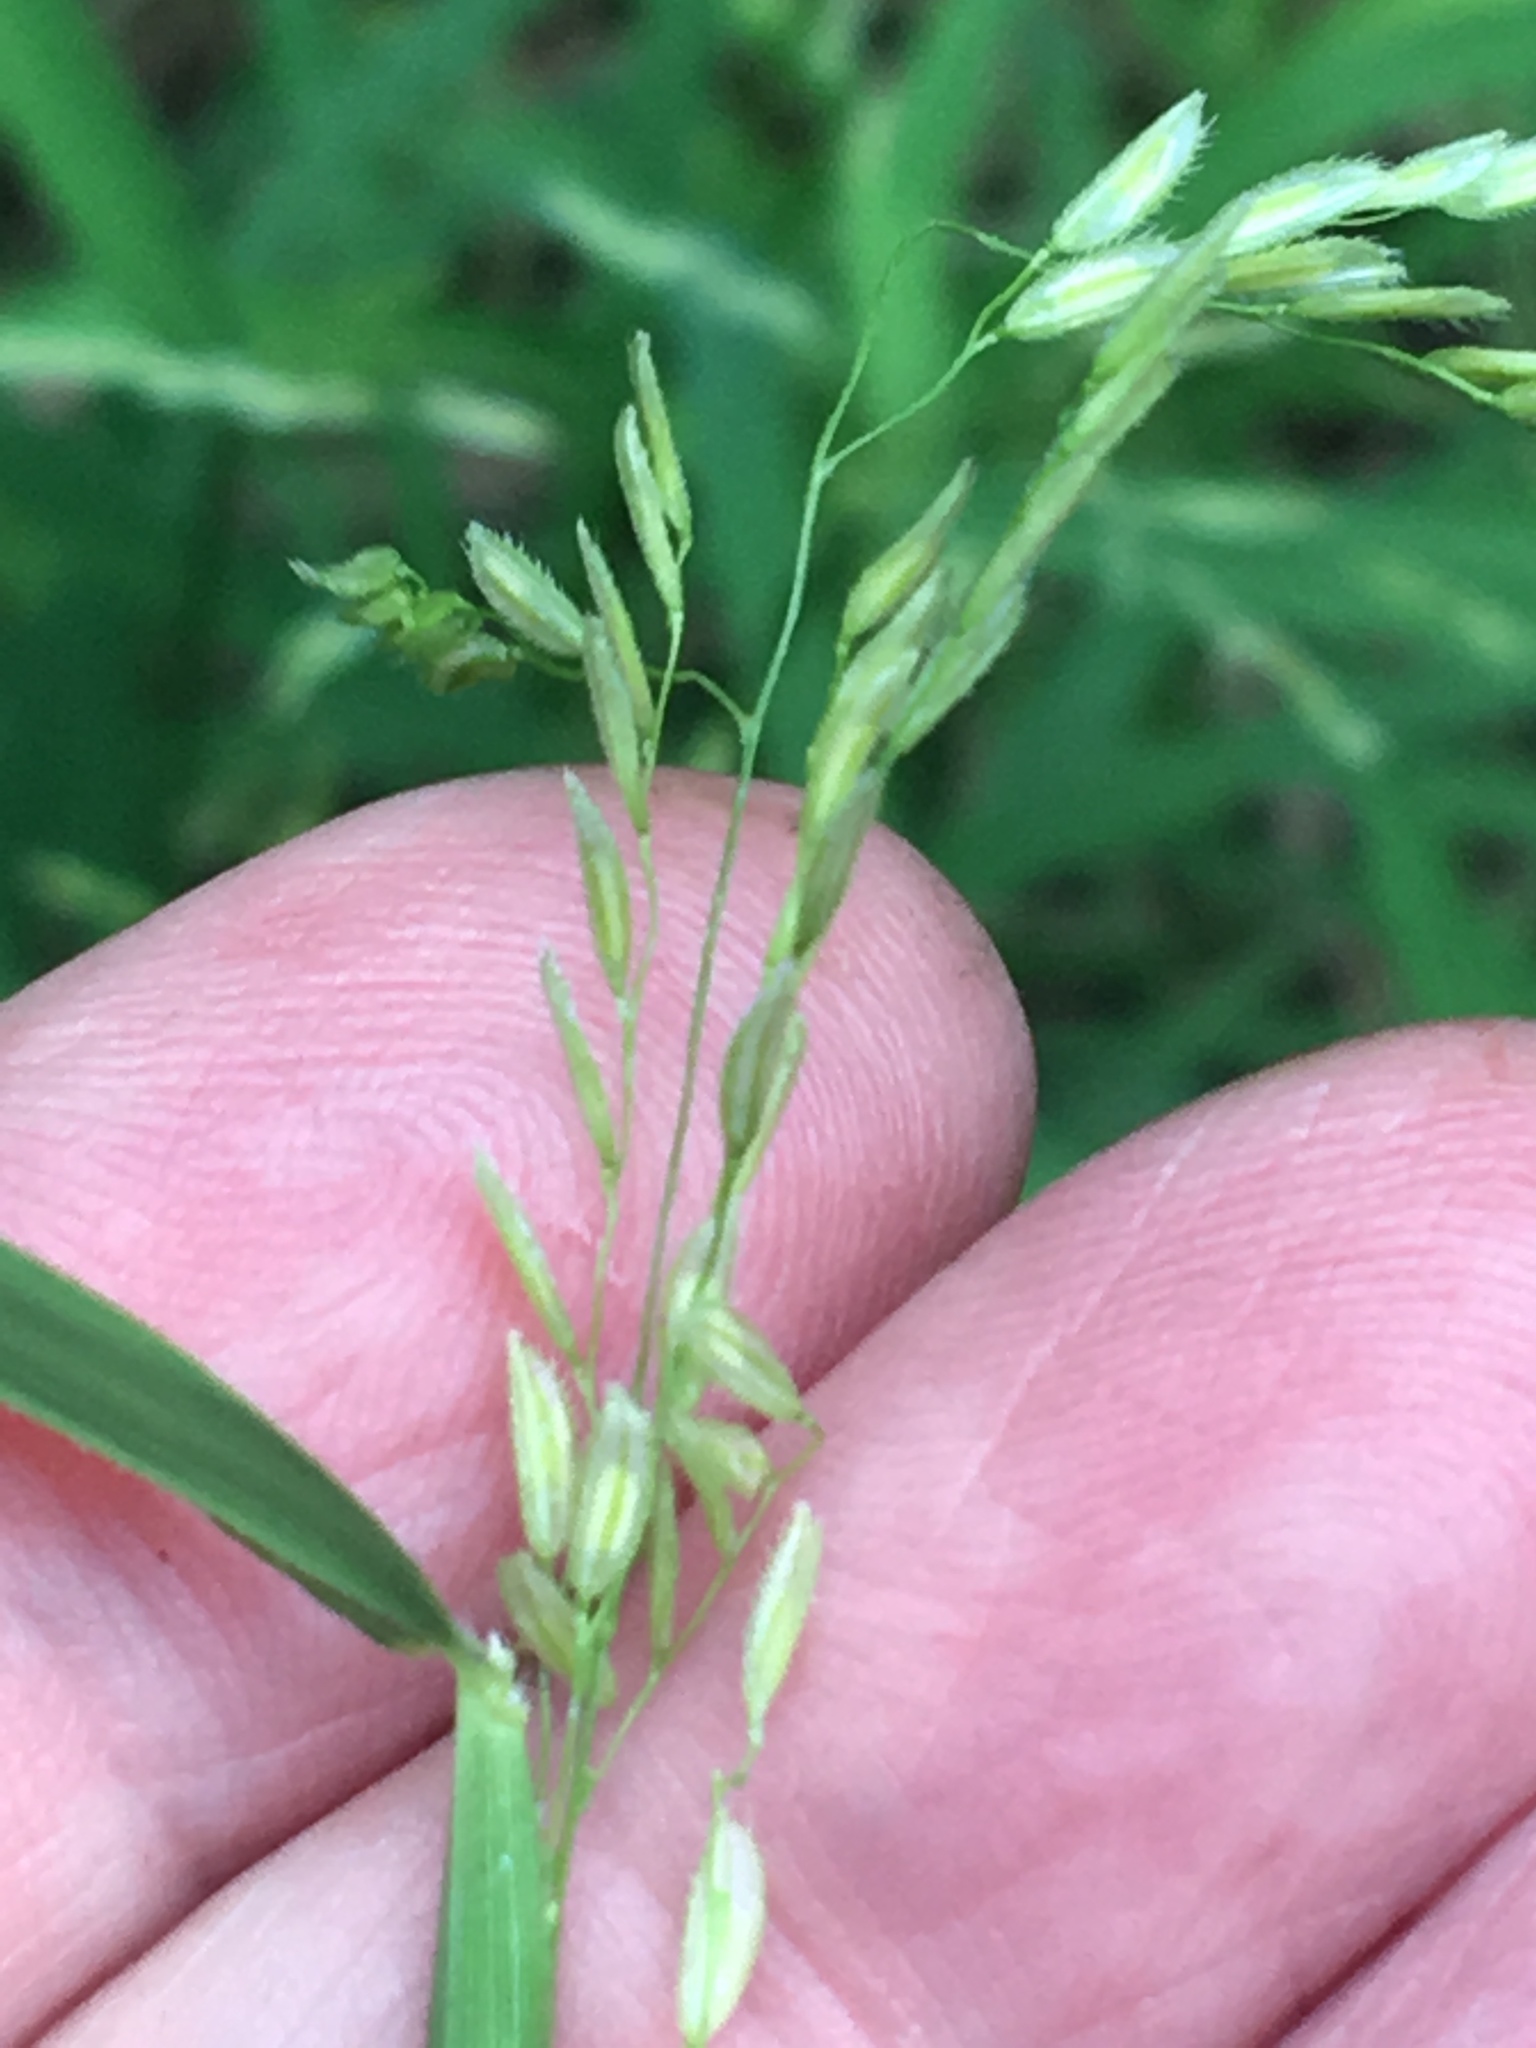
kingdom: Plantae
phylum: Tracheophyta
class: Liliopsida
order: Poales
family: Poaceae
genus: Leersia
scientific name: Leersia oryzoides
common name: Cut-grass
